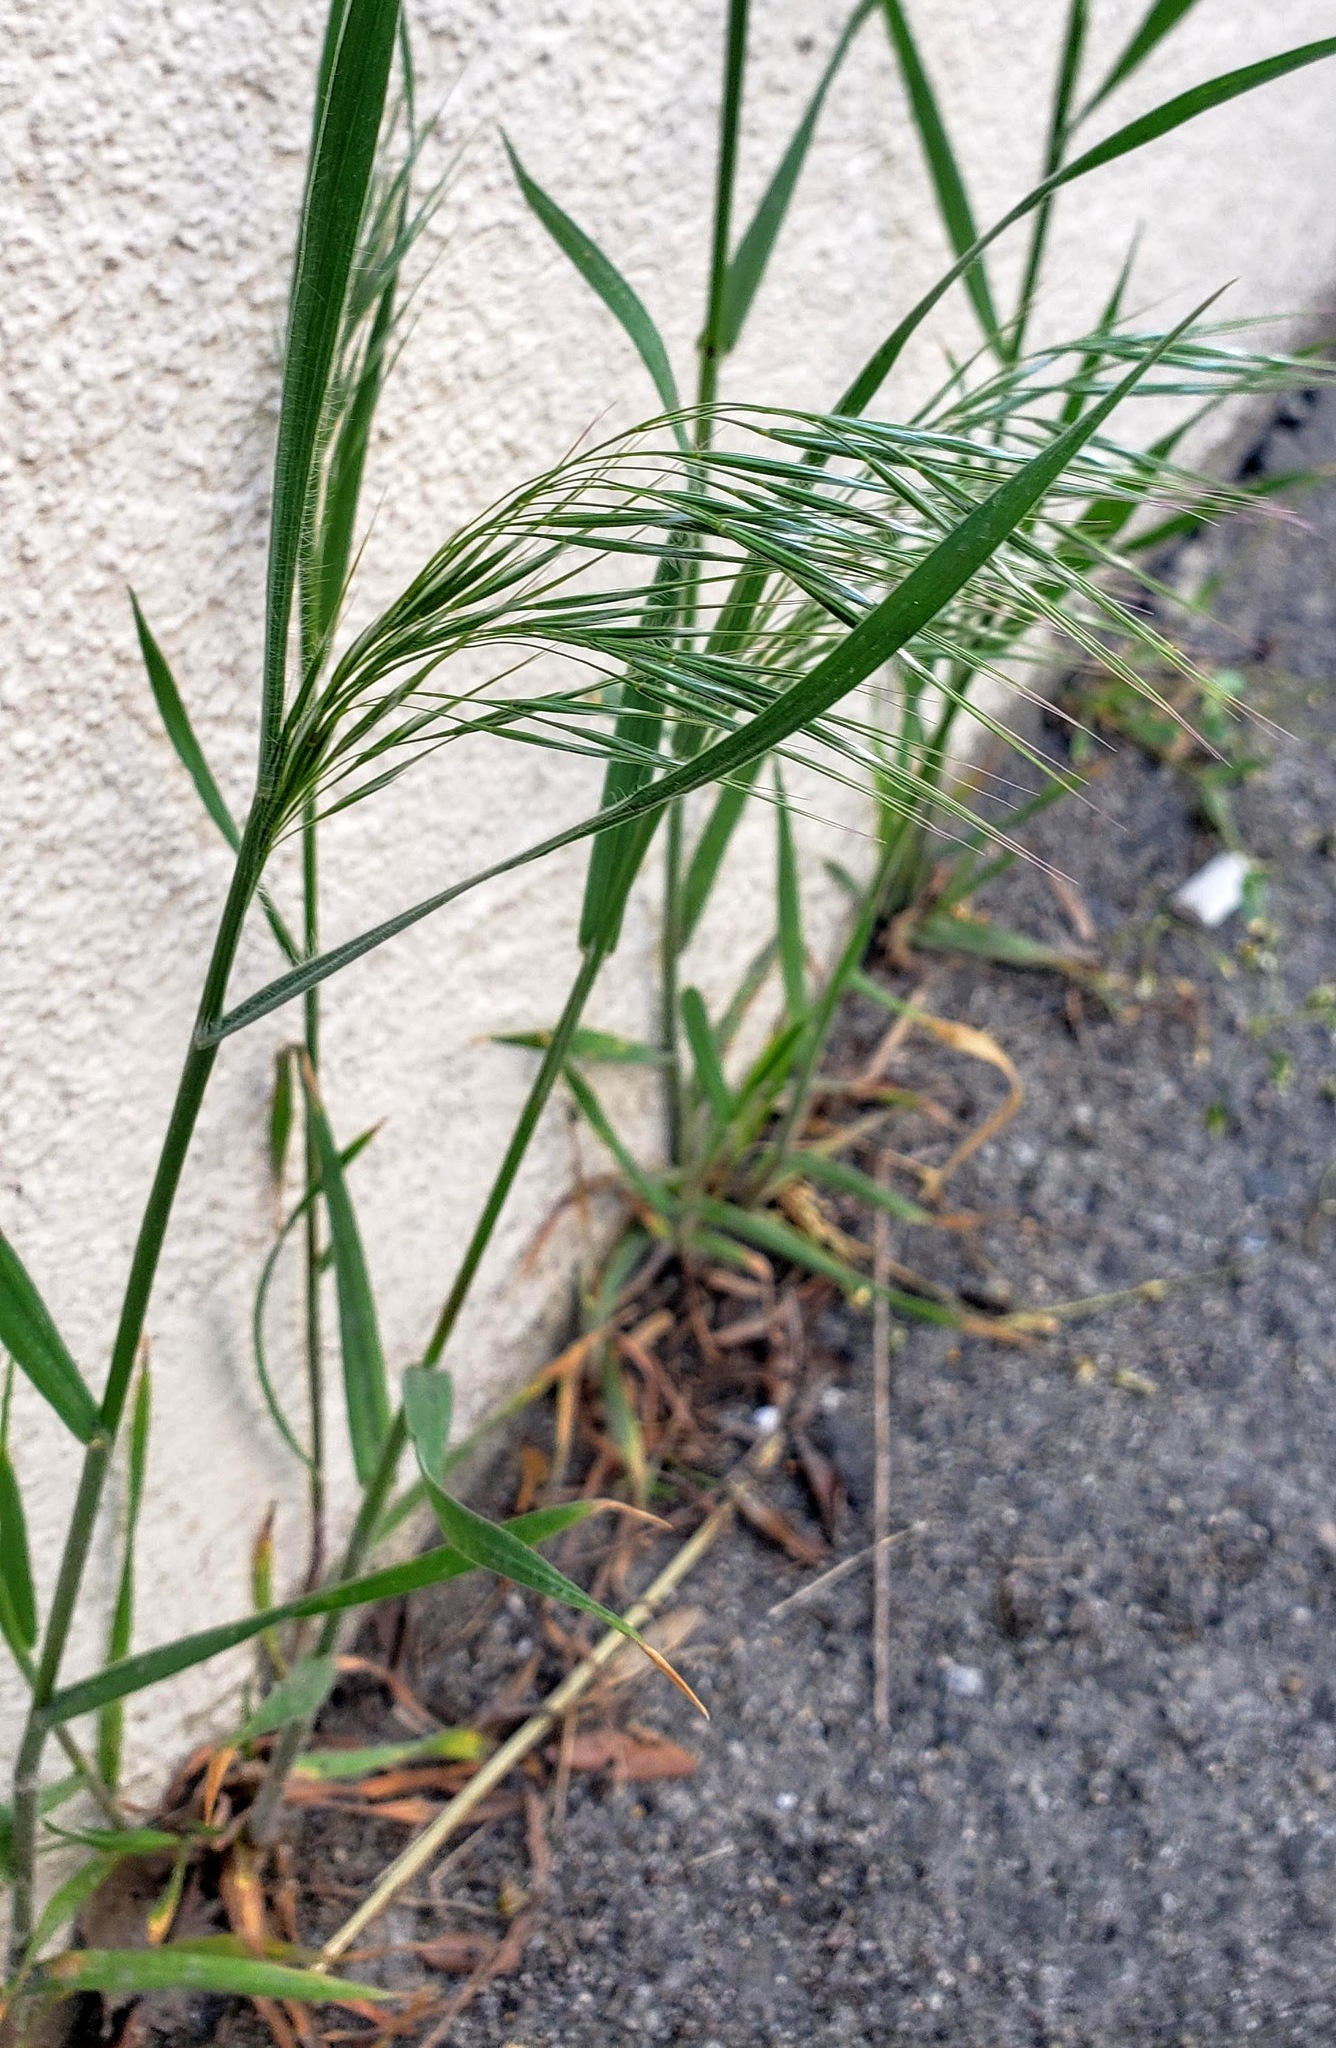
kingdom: Plantae
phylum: Tracheophyta
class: Liliopsida
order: Poales
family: Poaceae
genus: Bromus
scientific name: Bromus tectorum
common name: Cheatgrass
